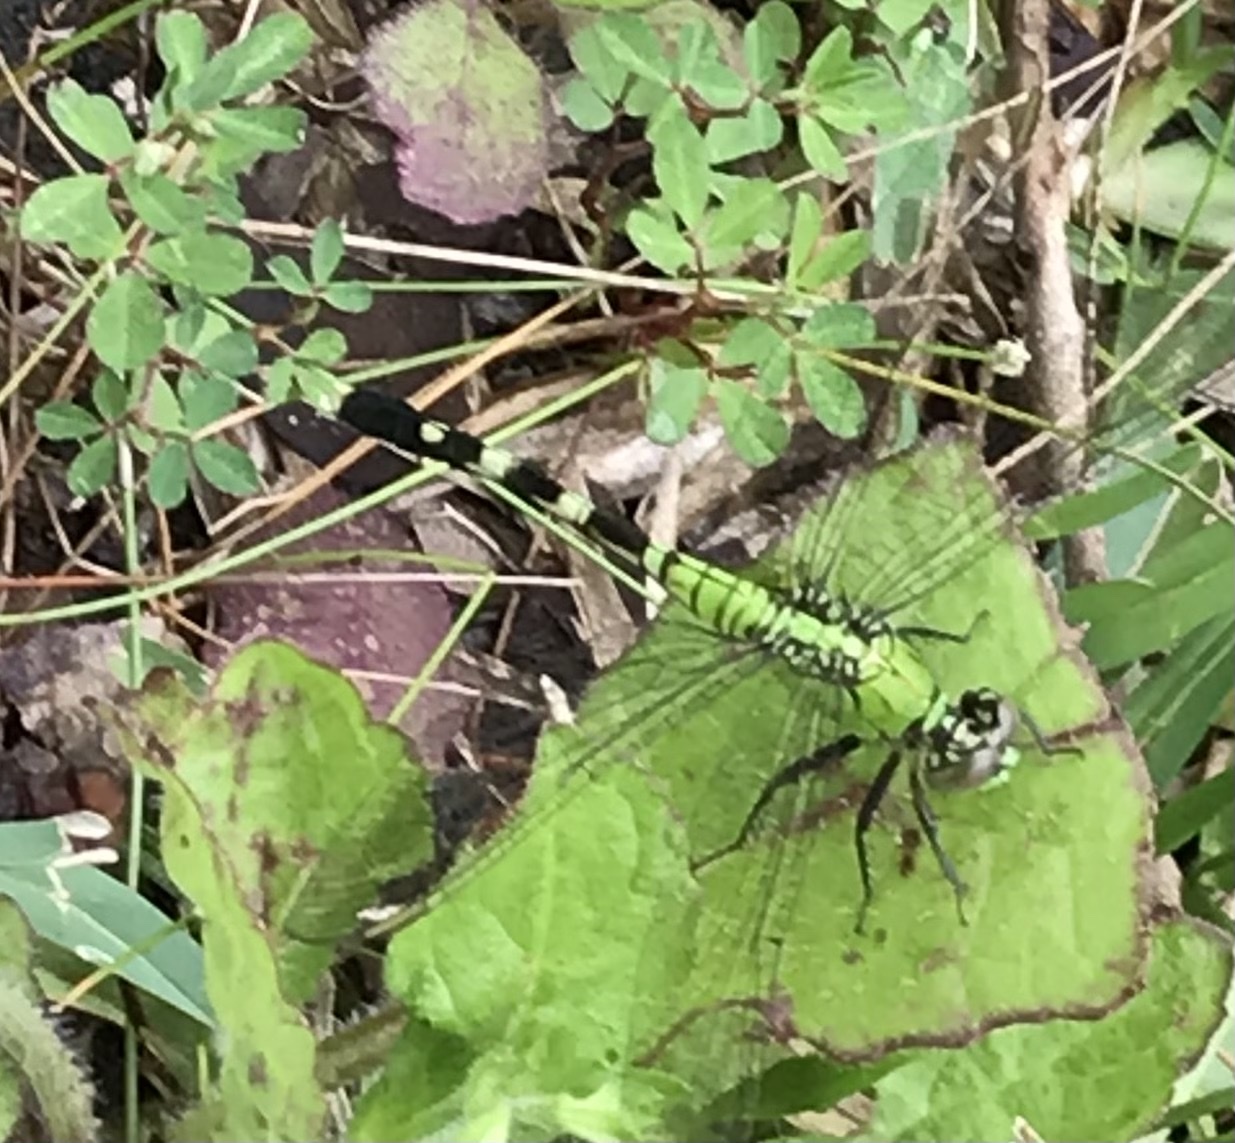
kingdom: Animalia
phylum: Arthropoda
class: Insecta
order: Odonata
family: Libellulidae
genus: Erythemis
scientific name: Erythemis simplicicollis
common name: Eastern pondhawk
